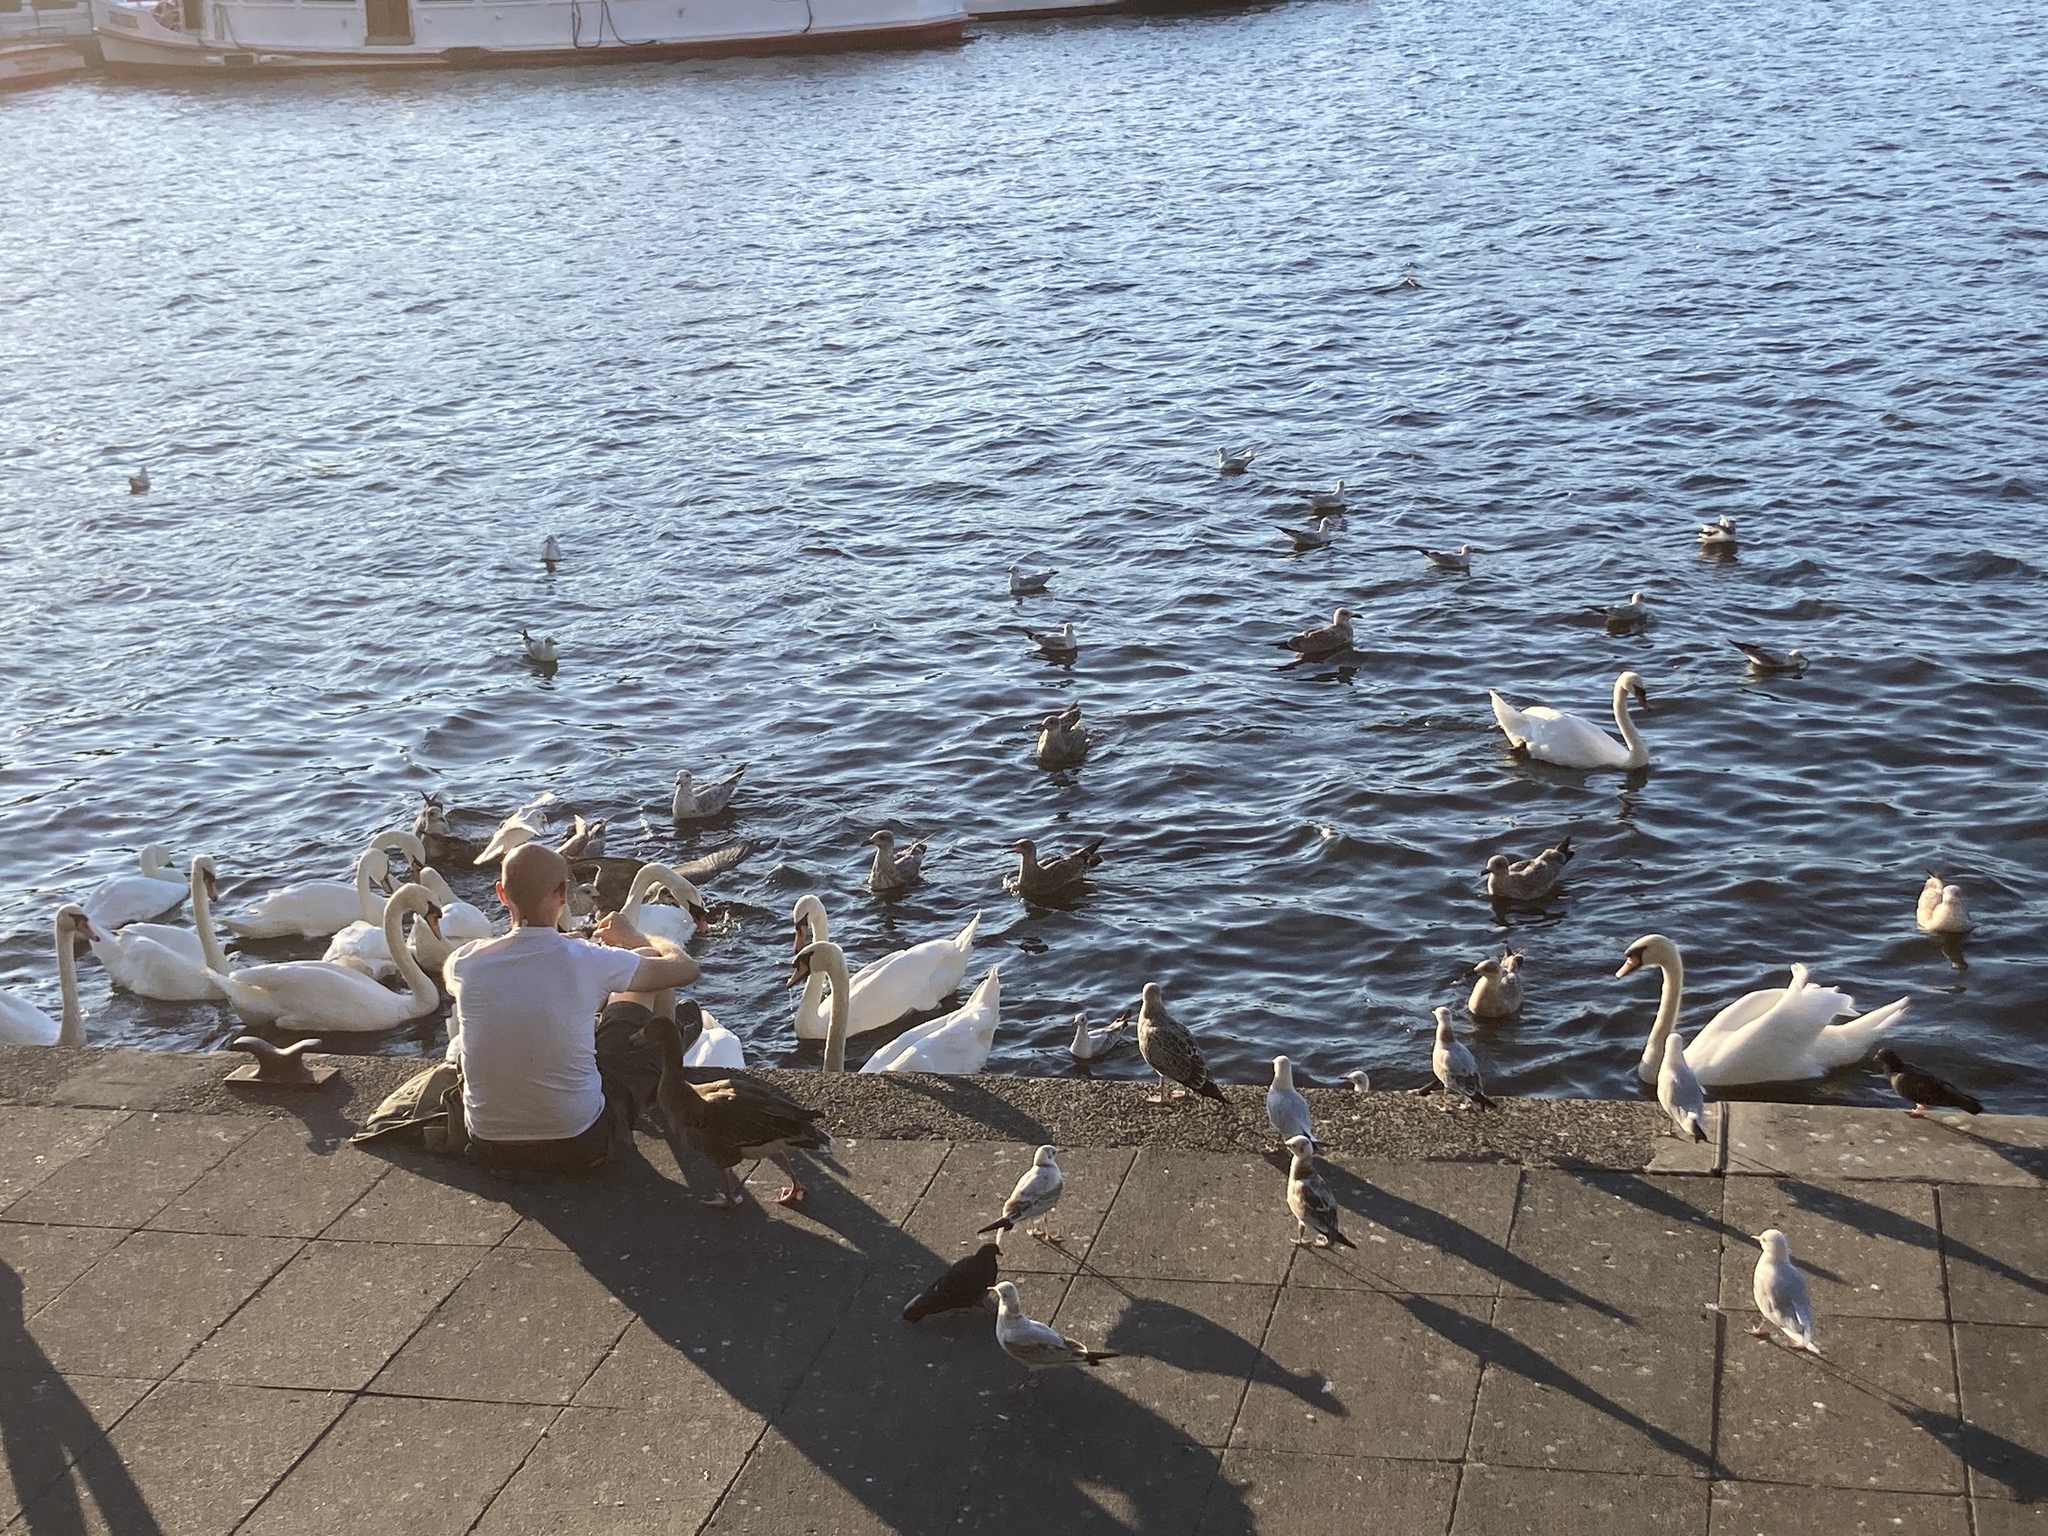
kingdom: Animalia
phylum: Chordata
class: Aves
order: Anseriformes
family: Anatidae
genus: Cygnus
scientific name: Cygnus olor
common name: Mute swan
